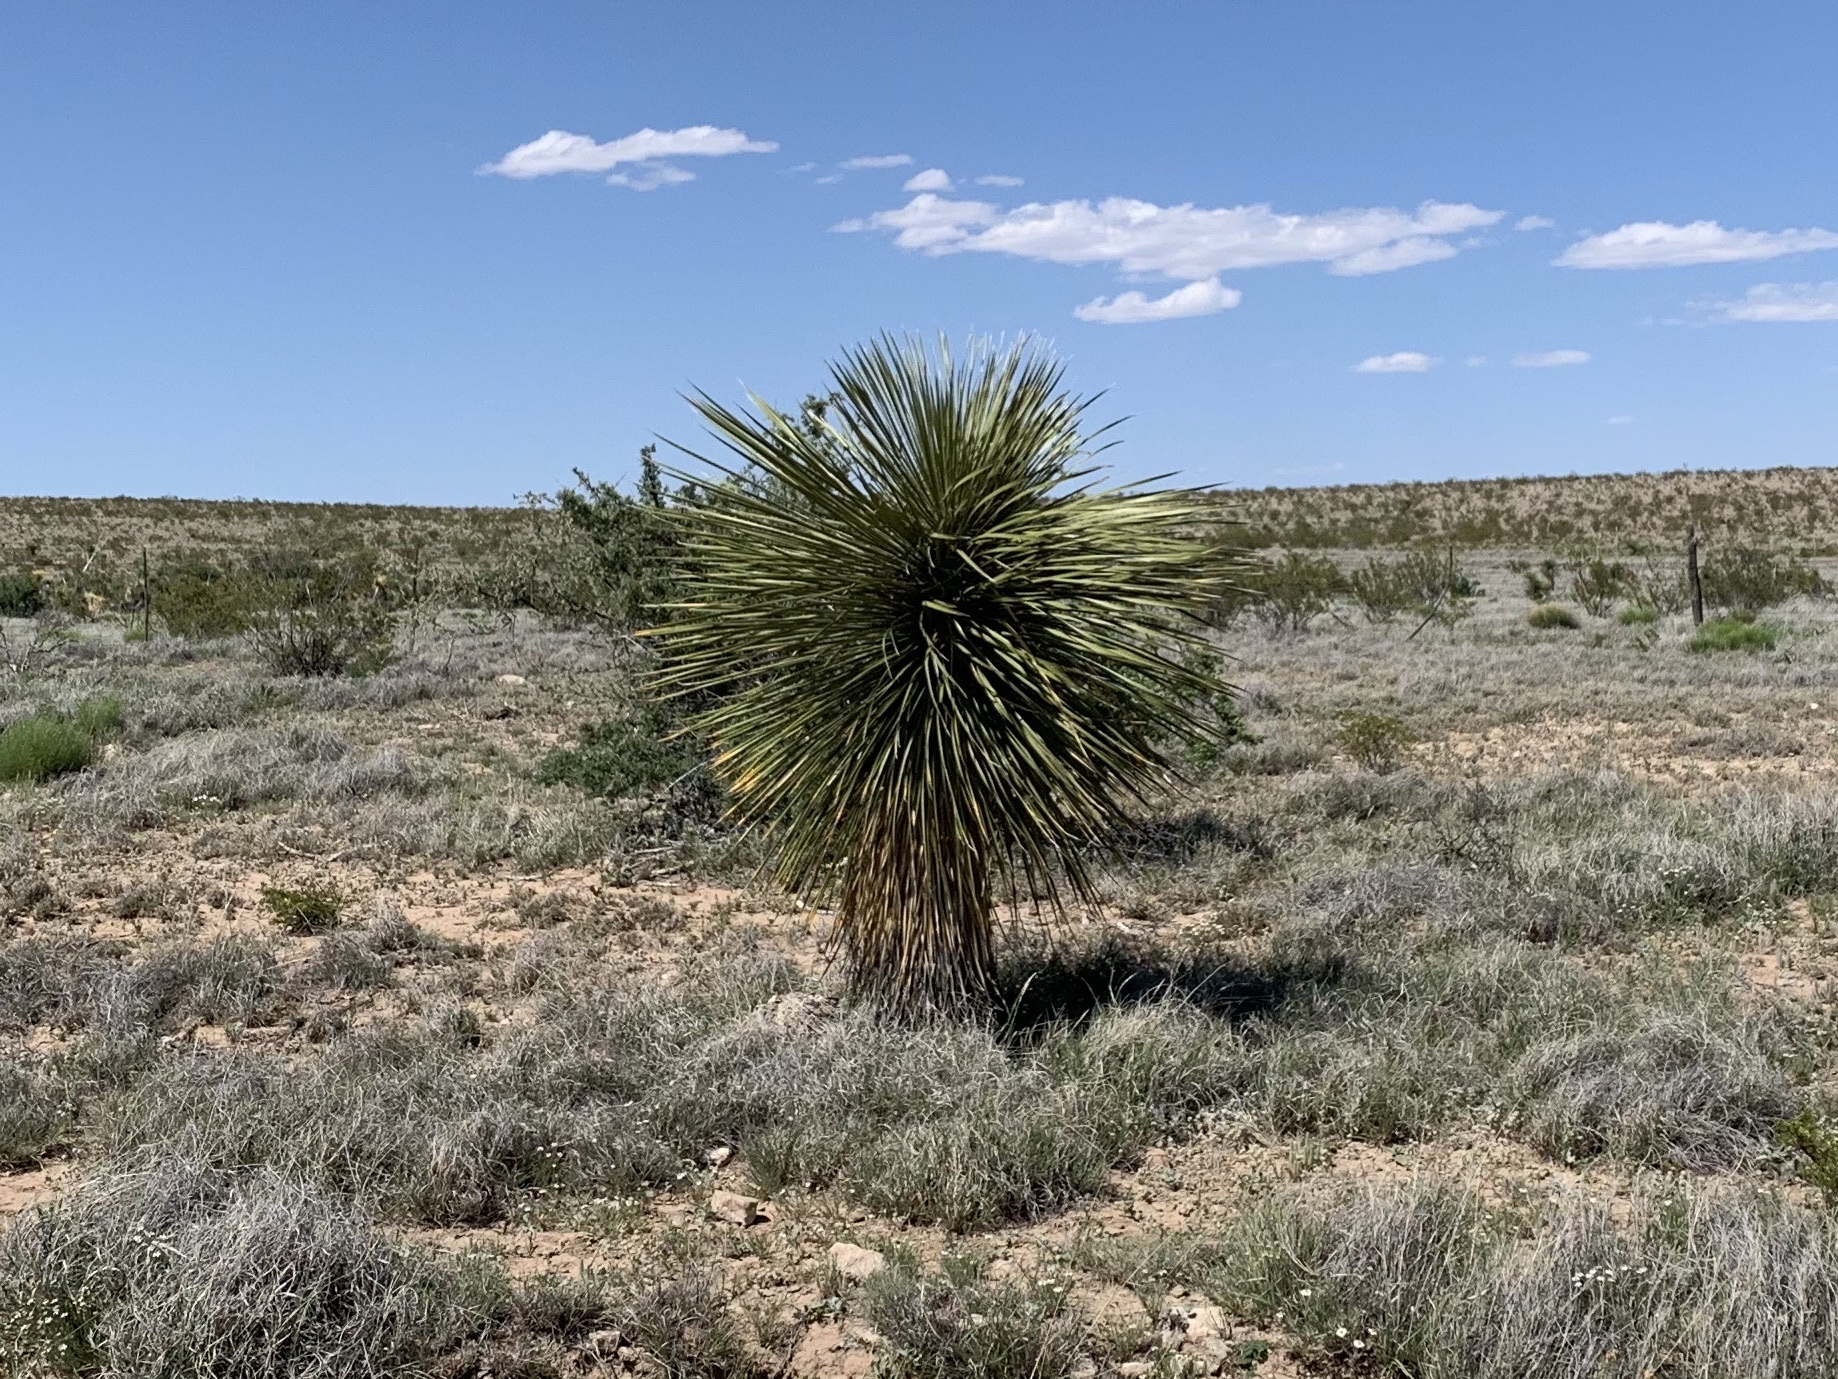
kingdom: Plantae
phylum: Tracheophyta
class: Liliopsida
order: Asparagales
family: Asparagaceae
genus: Yucca
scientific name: Yucca elata
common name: Palmella
